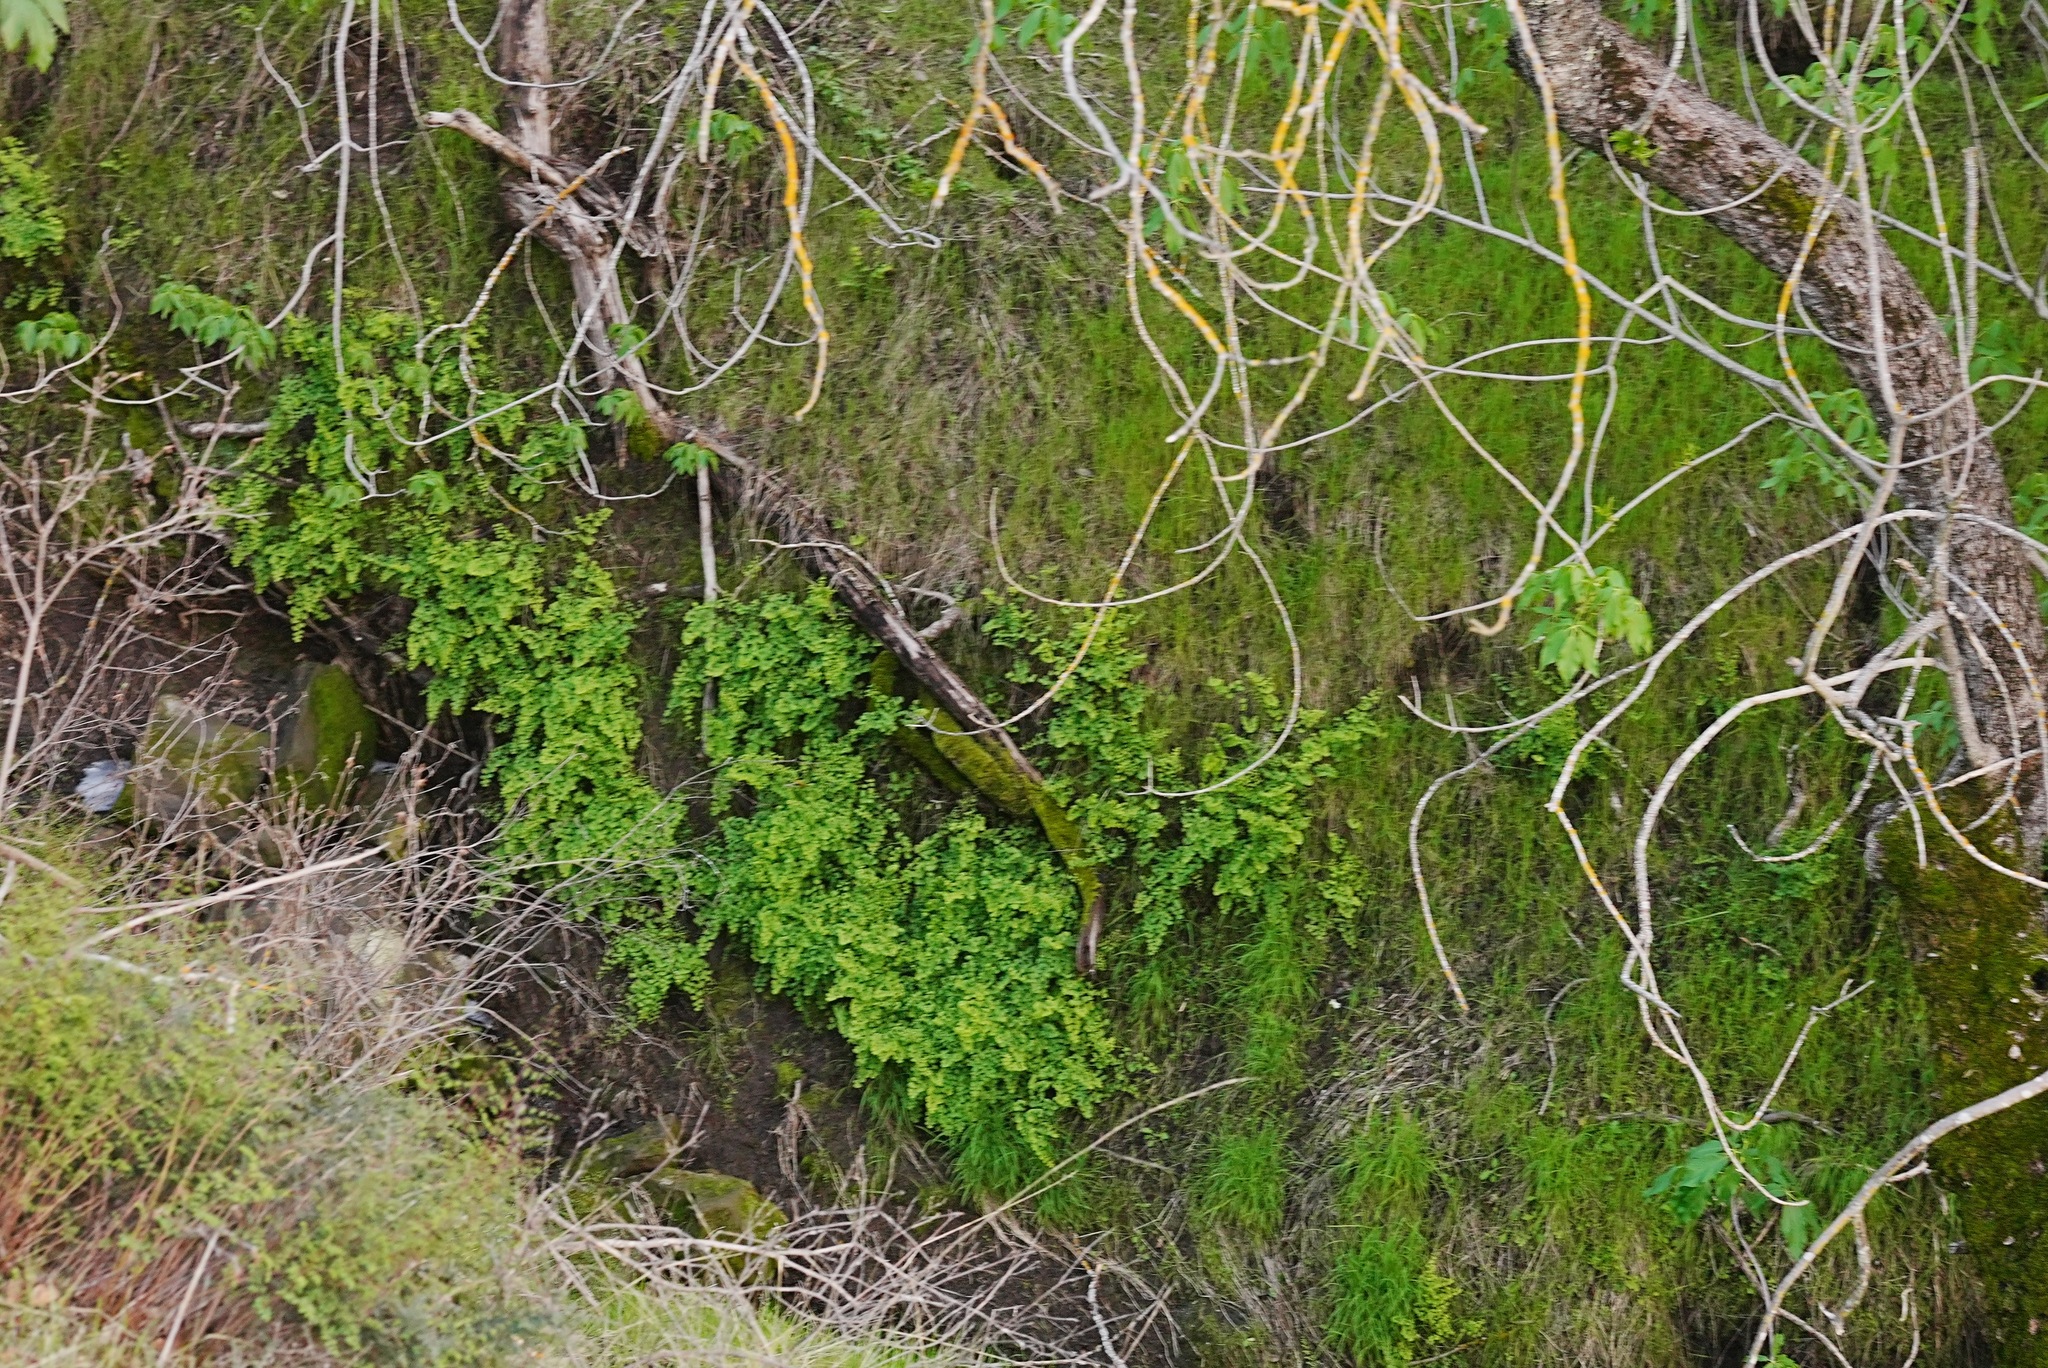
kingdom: Plantae
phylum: Tracheophyta
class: Polypodiopsida
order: Polypodiales
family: Pteridaceae
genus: Adiantum
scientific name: Adiantum jordanii
